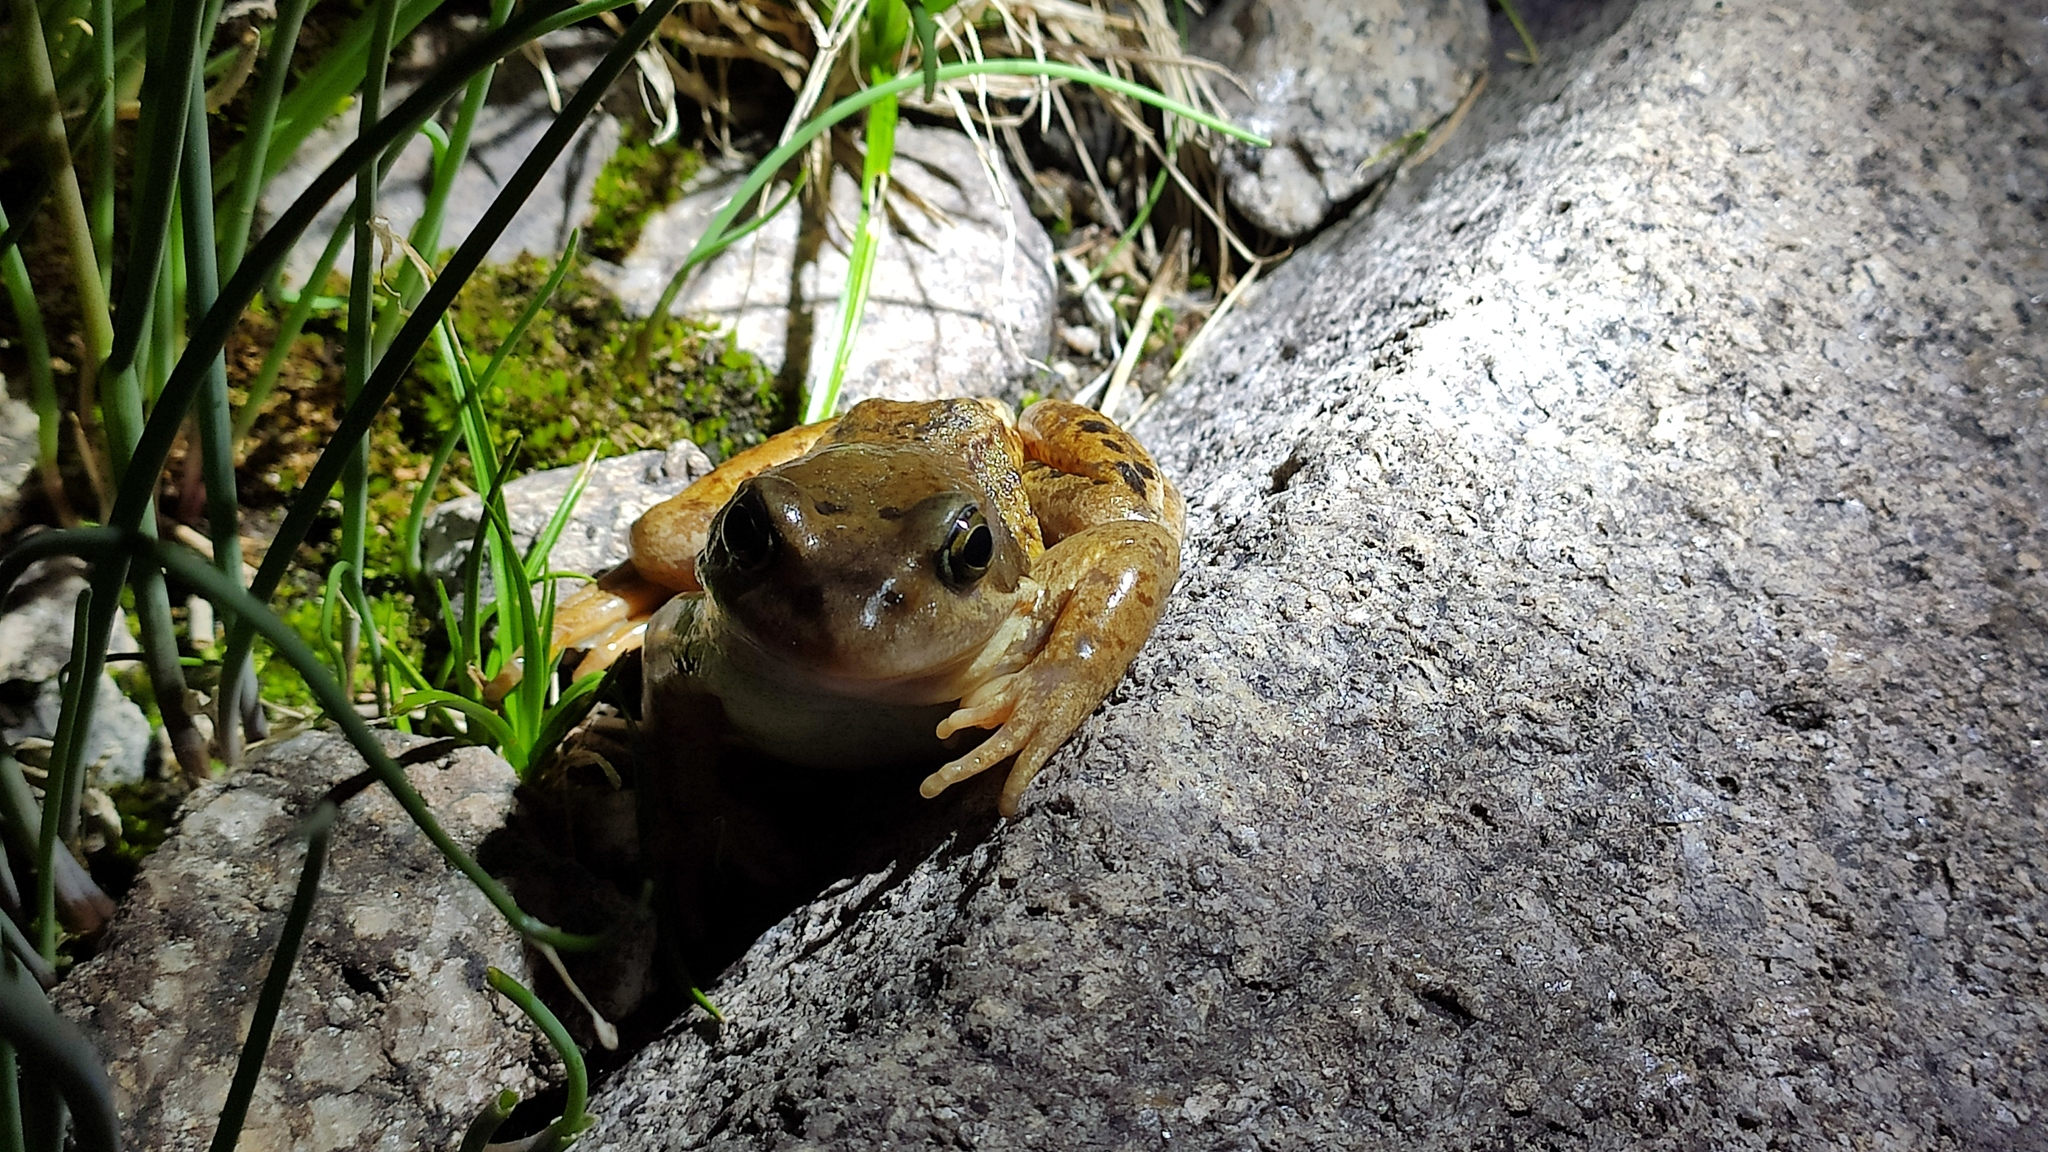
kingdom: Animalia
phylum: Chordata
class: Amphibia
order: Anura
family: Ranidae
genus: Rana
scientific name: Rana temporaria
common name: Common frog
